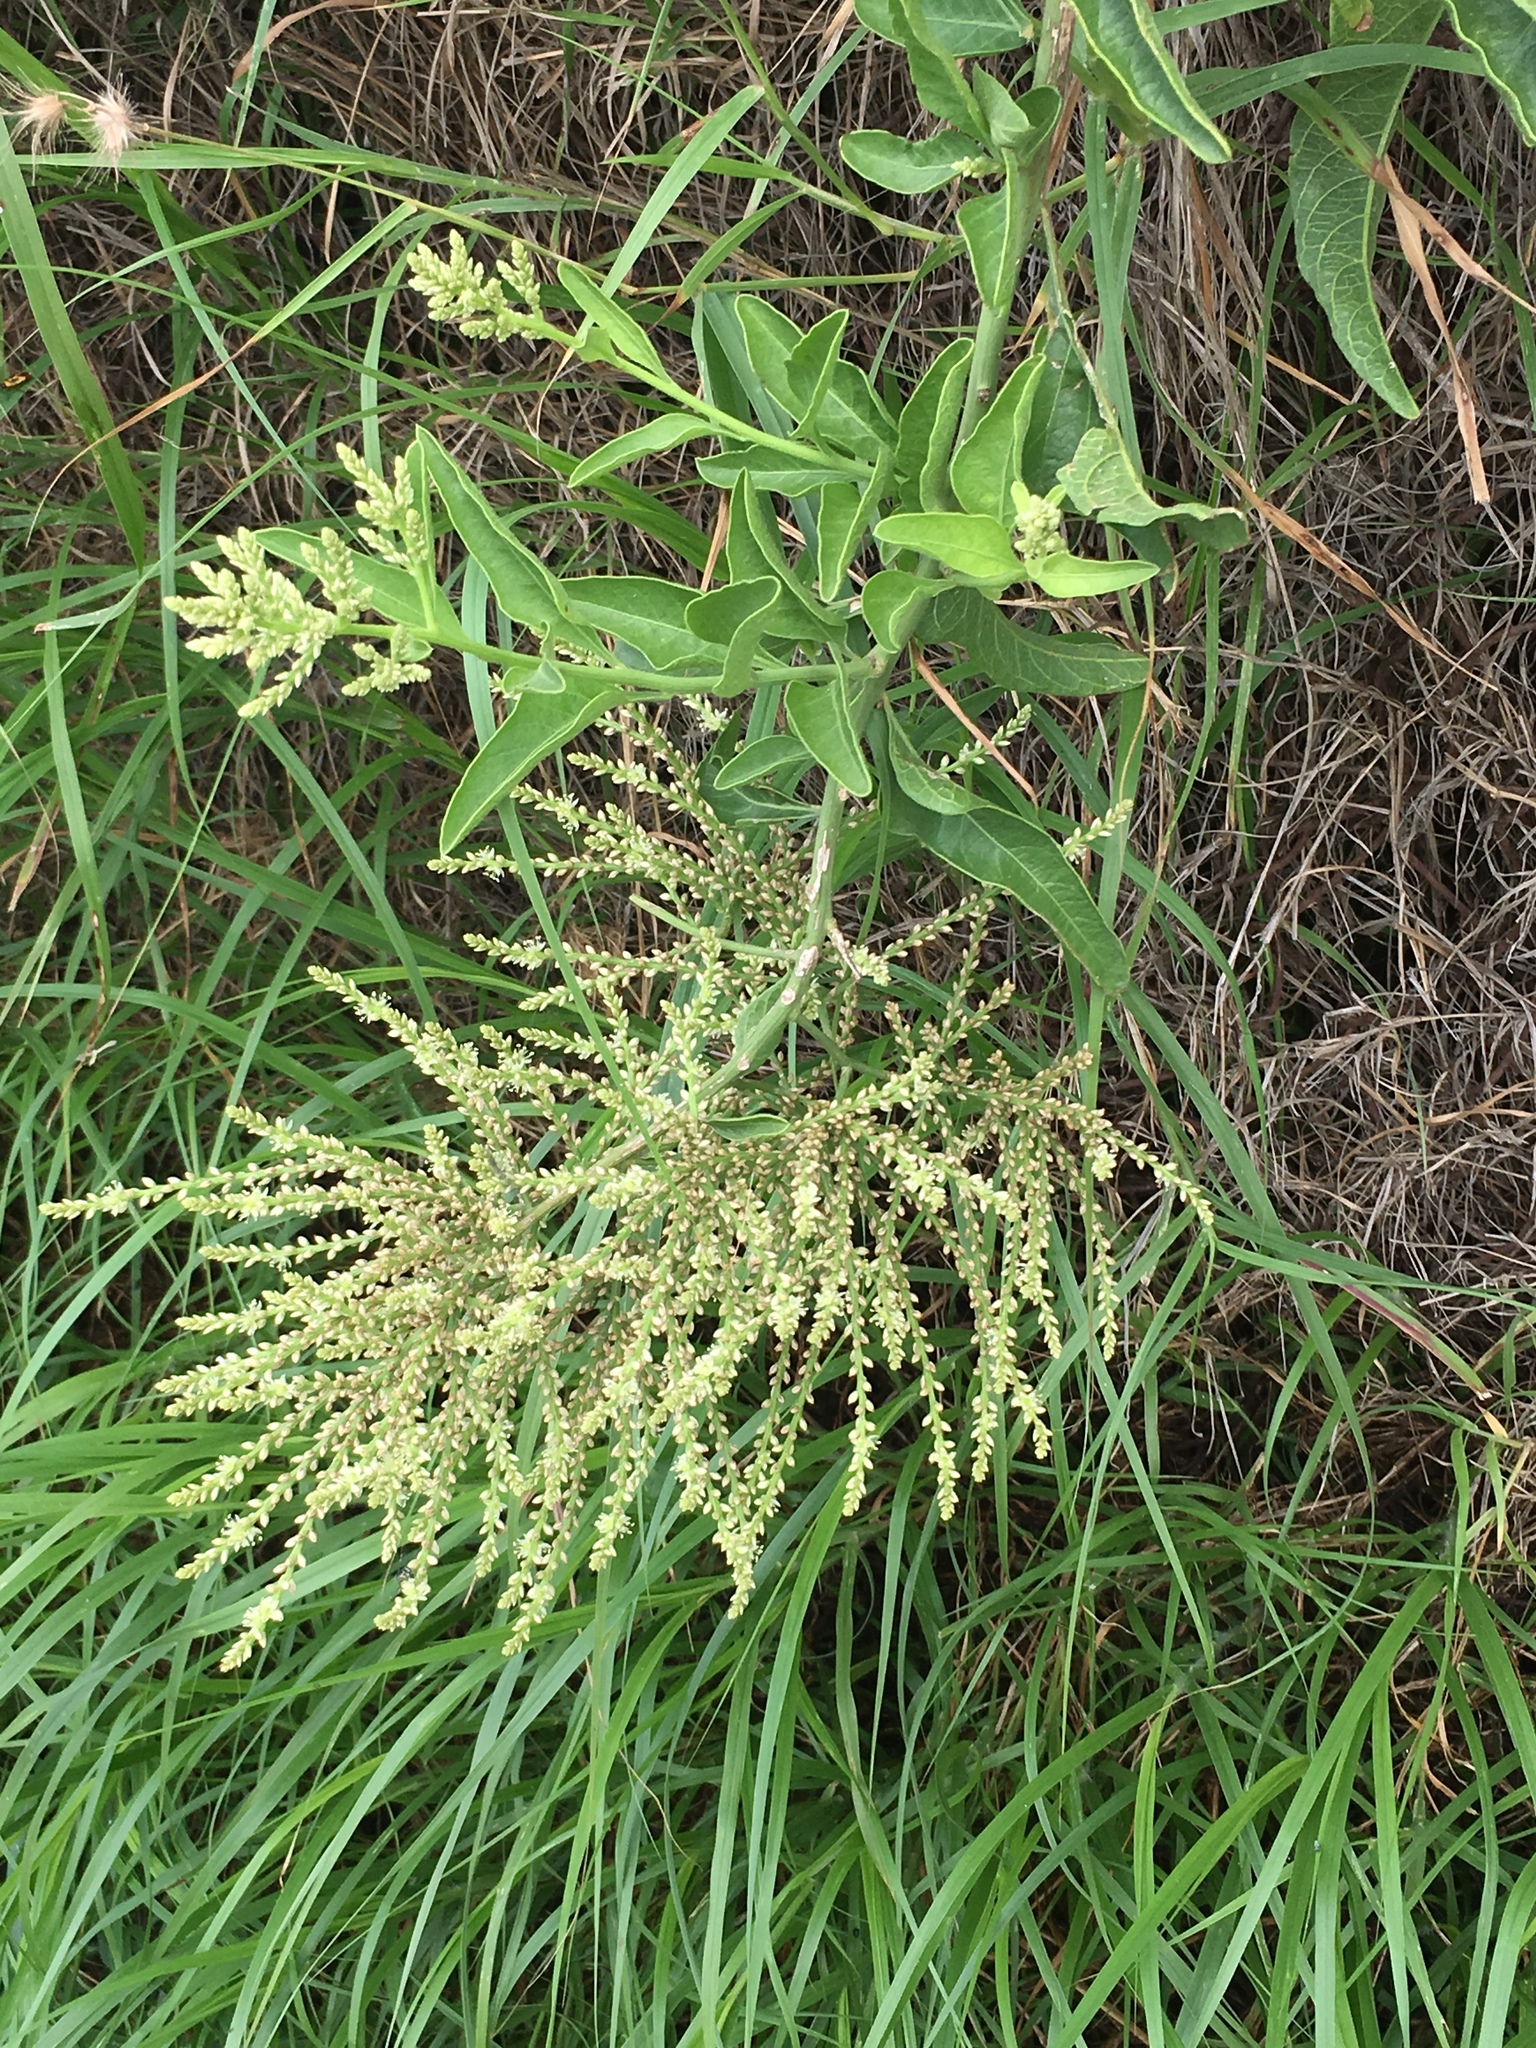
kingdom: Plantae
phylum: Tracheophyta
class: Magnoliopsida
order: Caryophyllales
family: Amaranthaceae
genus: Celosia
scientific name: Celosia floribunda
